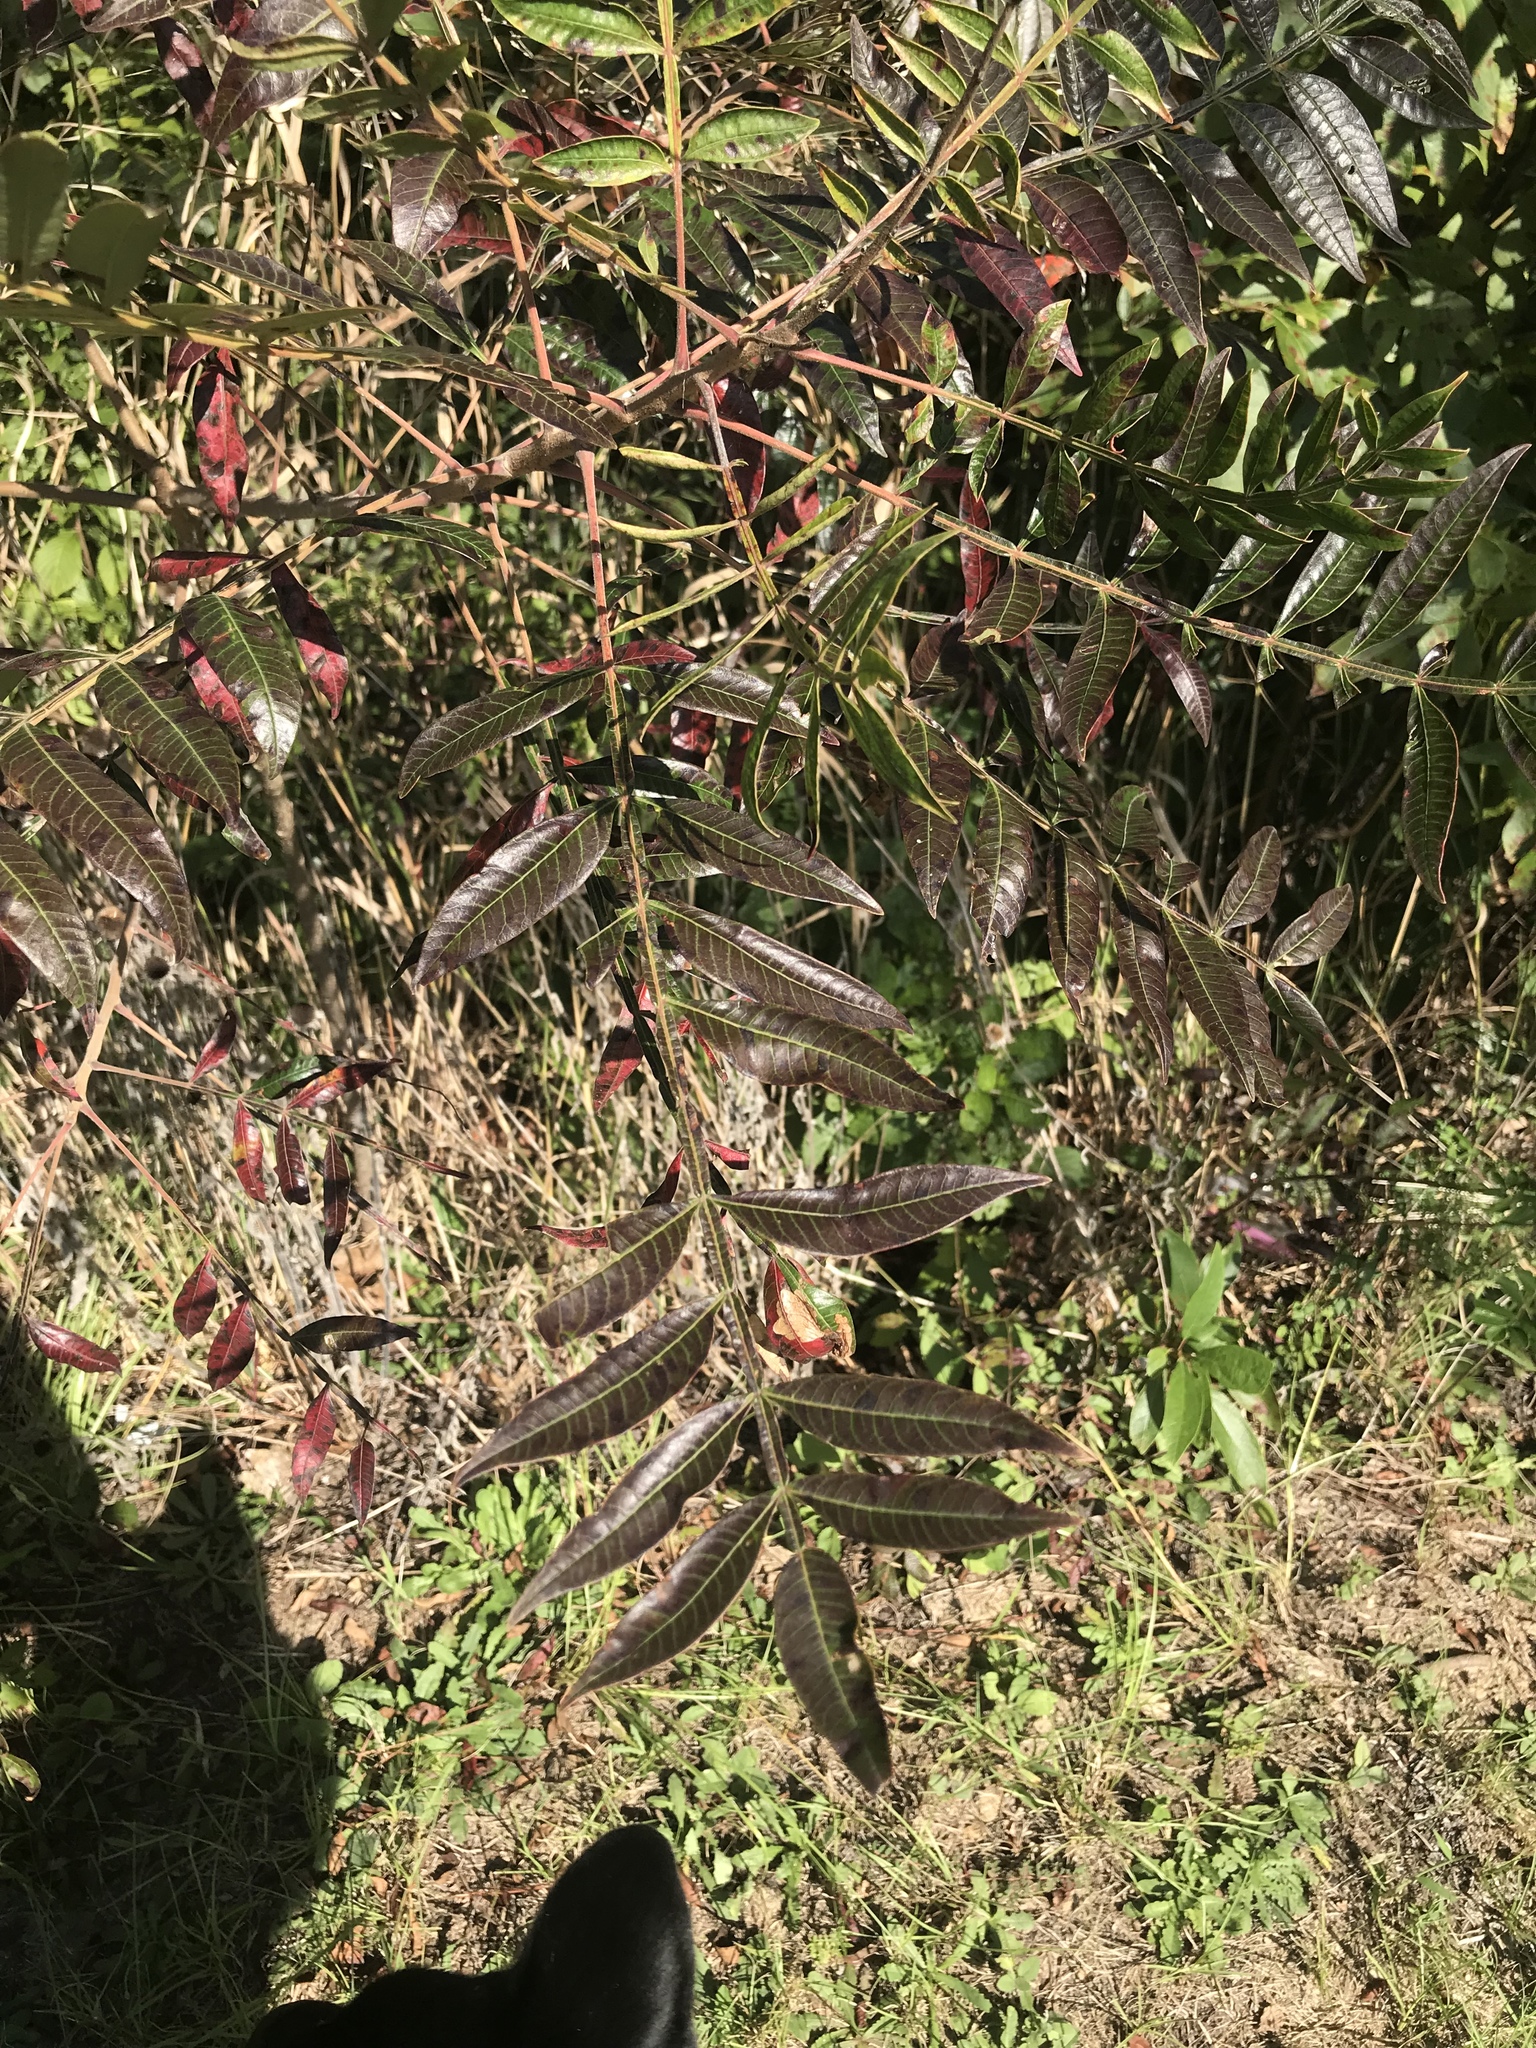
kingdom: Plantae
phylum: Tracheophyta
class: Magnoliopsida
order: Sapindales
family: Anacardiaceae
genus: Rhus
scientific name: Rhus copallina
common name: Shining sumac
